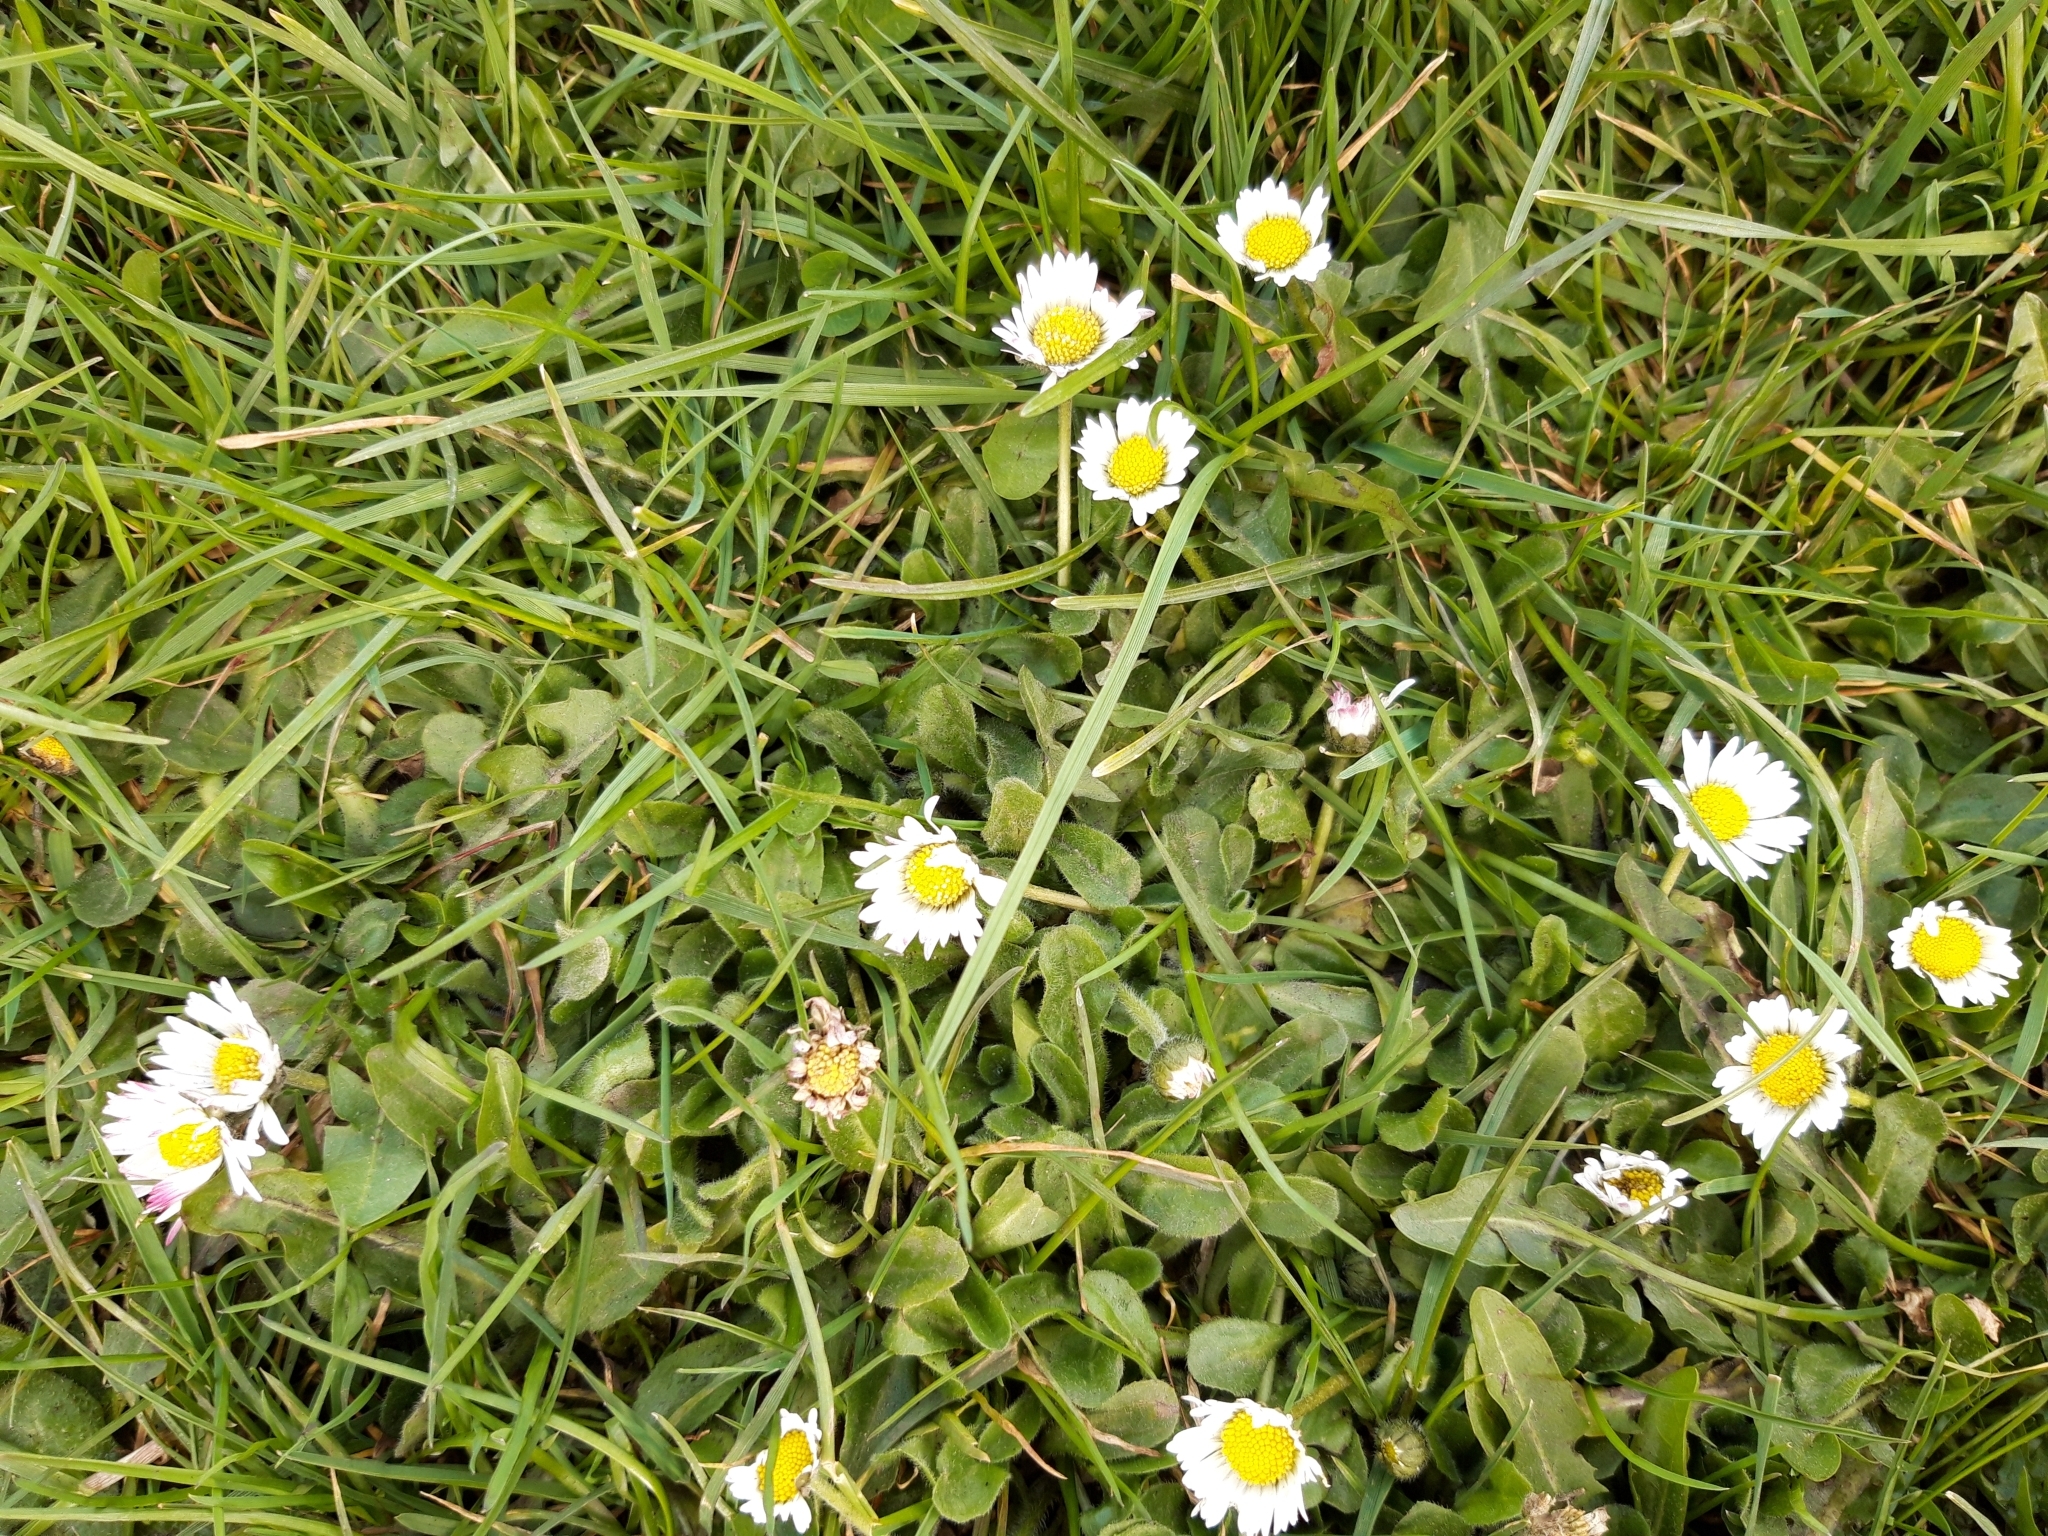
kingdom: Plantae
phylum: Tracheophyta
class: Magnoliopsida
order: Asterales
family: Asteraceae
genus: Bellis
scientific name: Bellis perennis
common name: Lawndaisy
